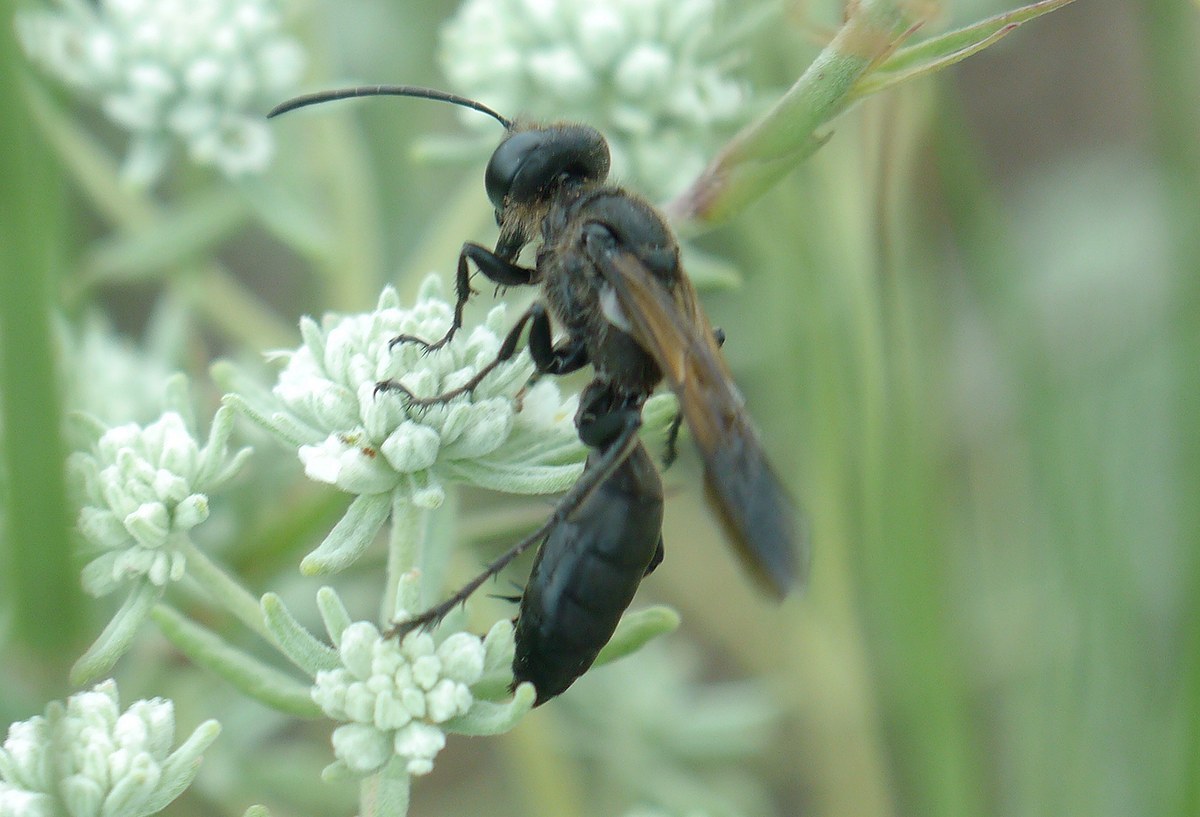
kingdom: Animalia
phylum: Arthropoda
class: Insecta
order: Hymenoptera
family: Sphecidae
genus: Sphex
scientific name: Sphex leuconotus
